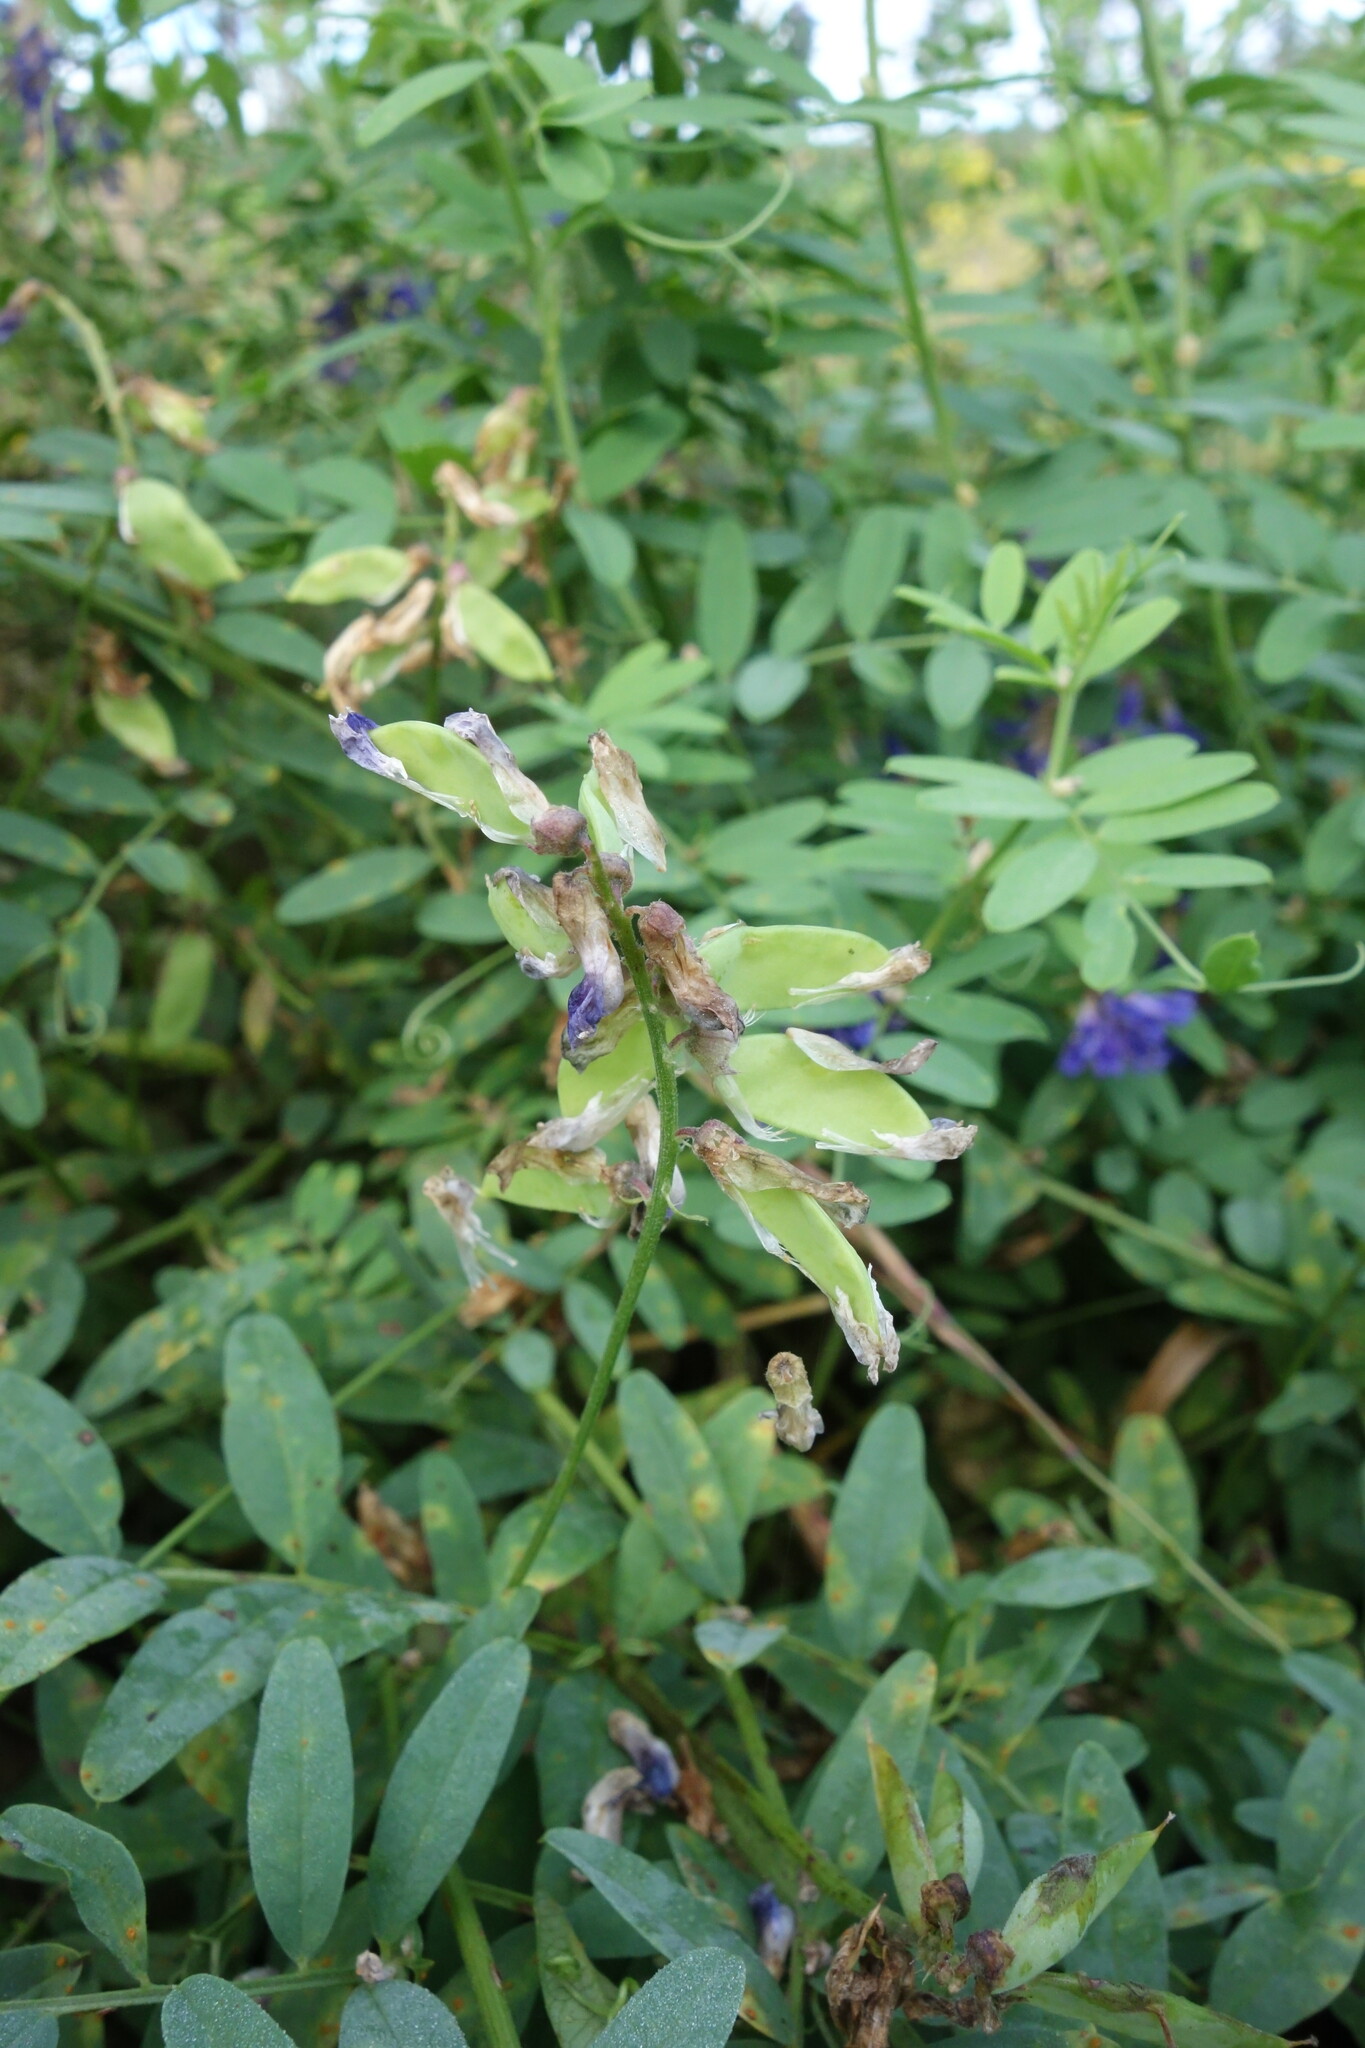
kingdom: Plantae
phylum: Tracheophyta
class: Magnoliopsida
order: Fabales
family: Fabaceae
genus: Vicia
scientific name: Vicia amoena
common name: Cheder ebs
